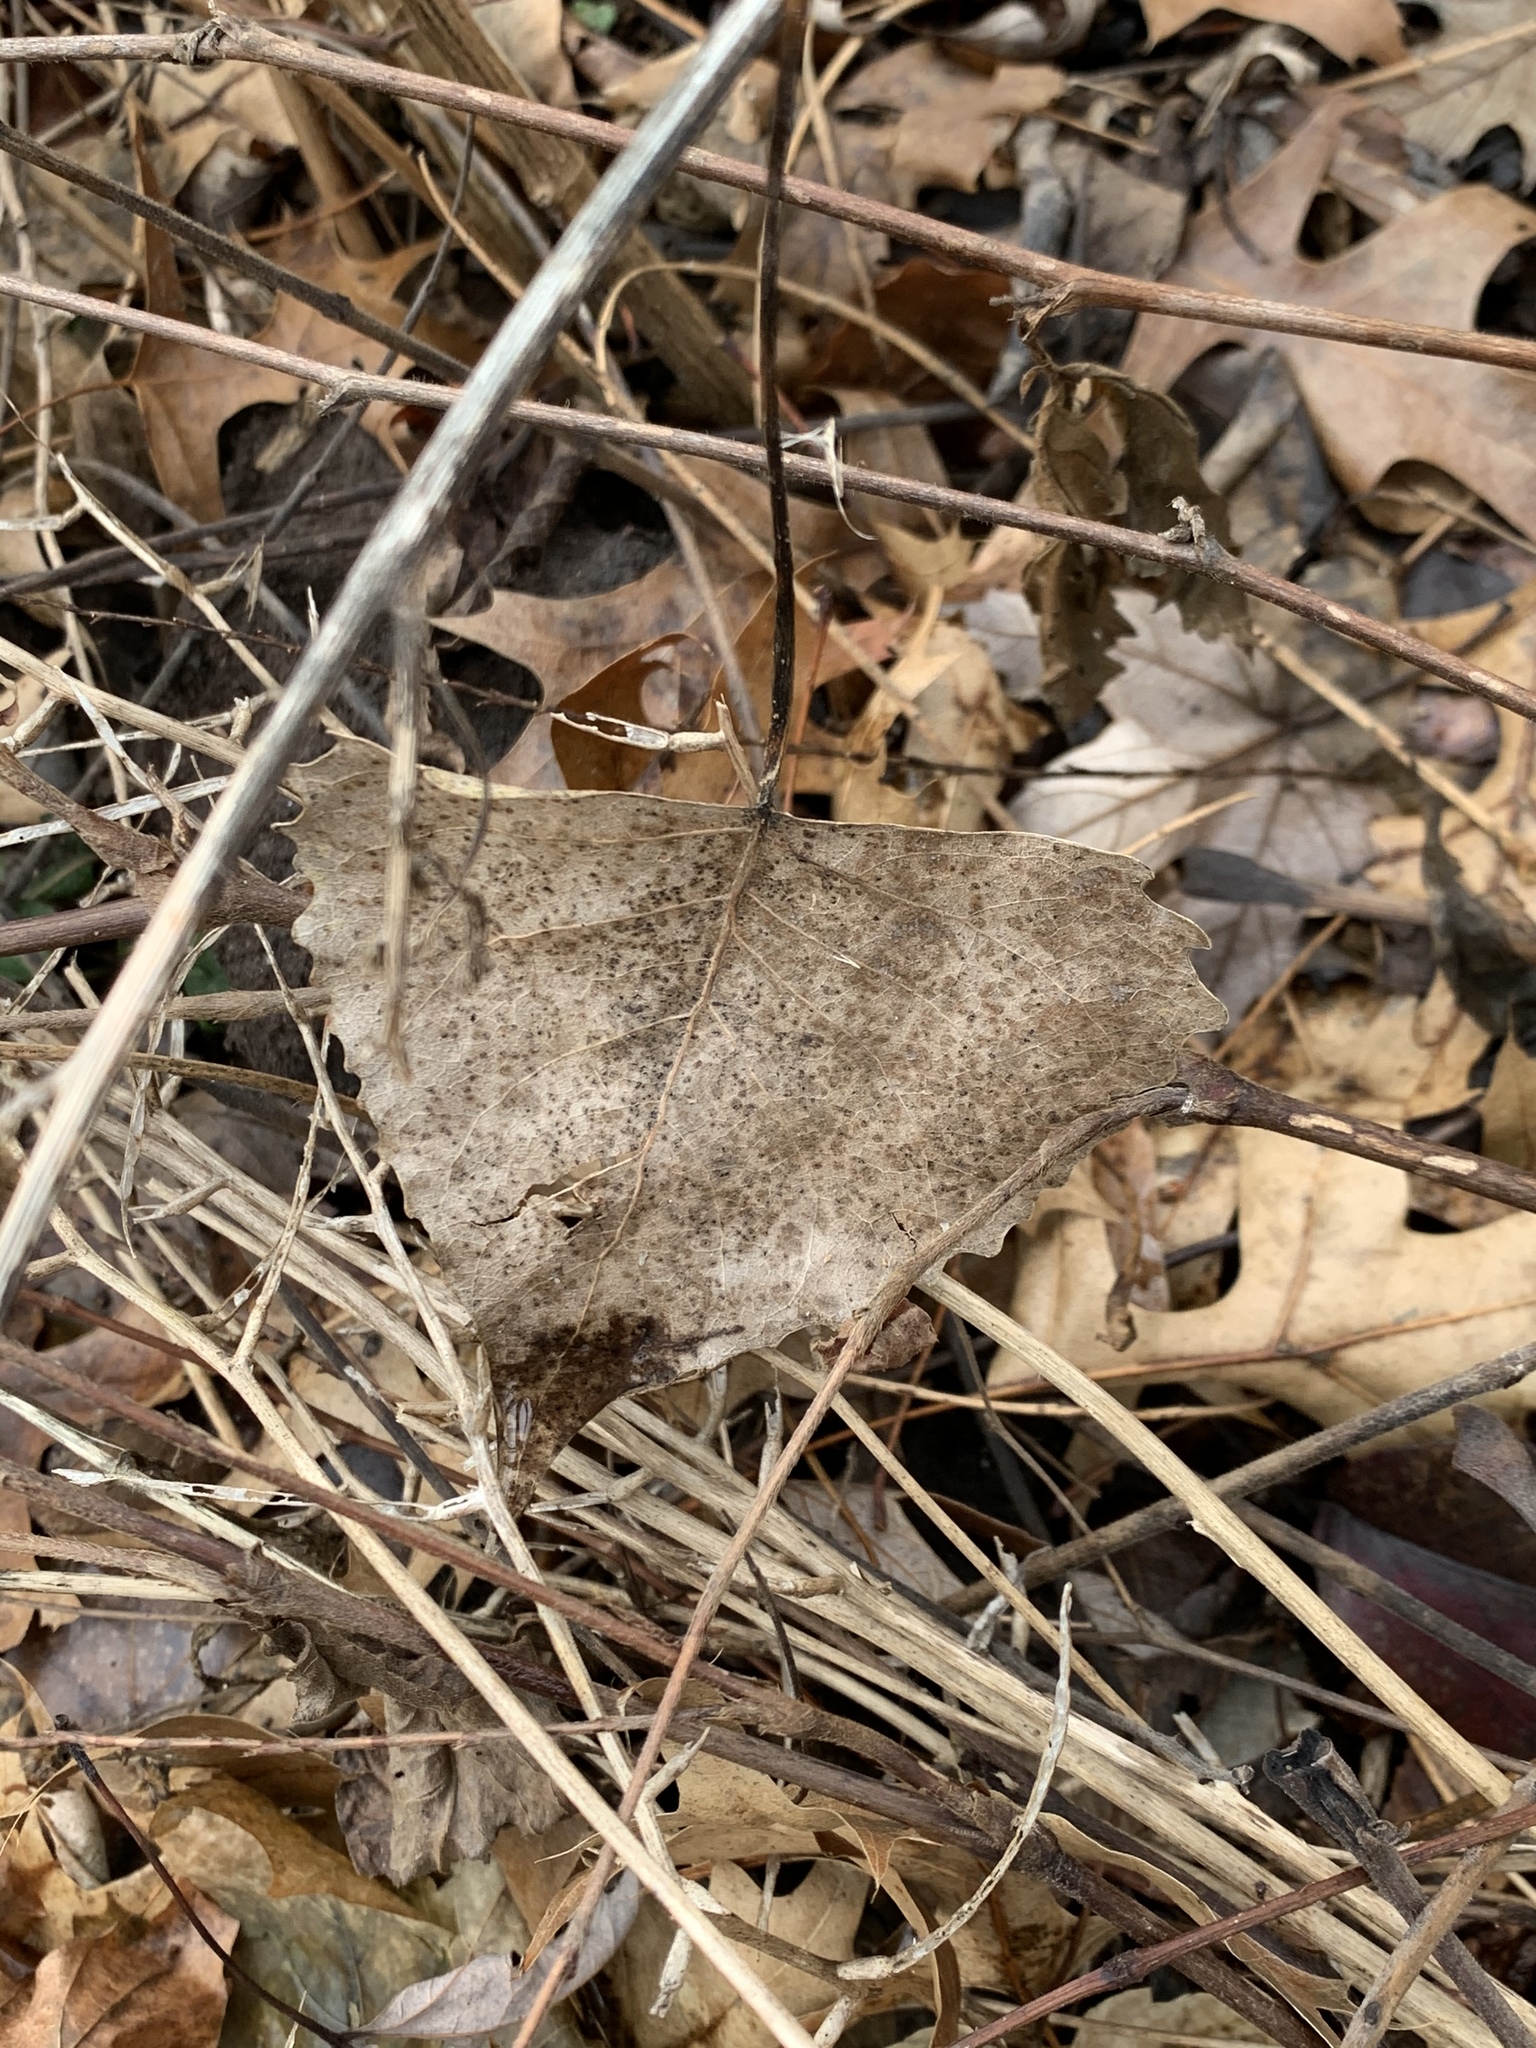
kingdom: Plantae
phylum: Tracheophyta
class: Magnoliopsida
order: Malpighiales
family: Salicaceae
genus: Populus
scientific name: Populus deltoides
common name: Eastern cottonwood
